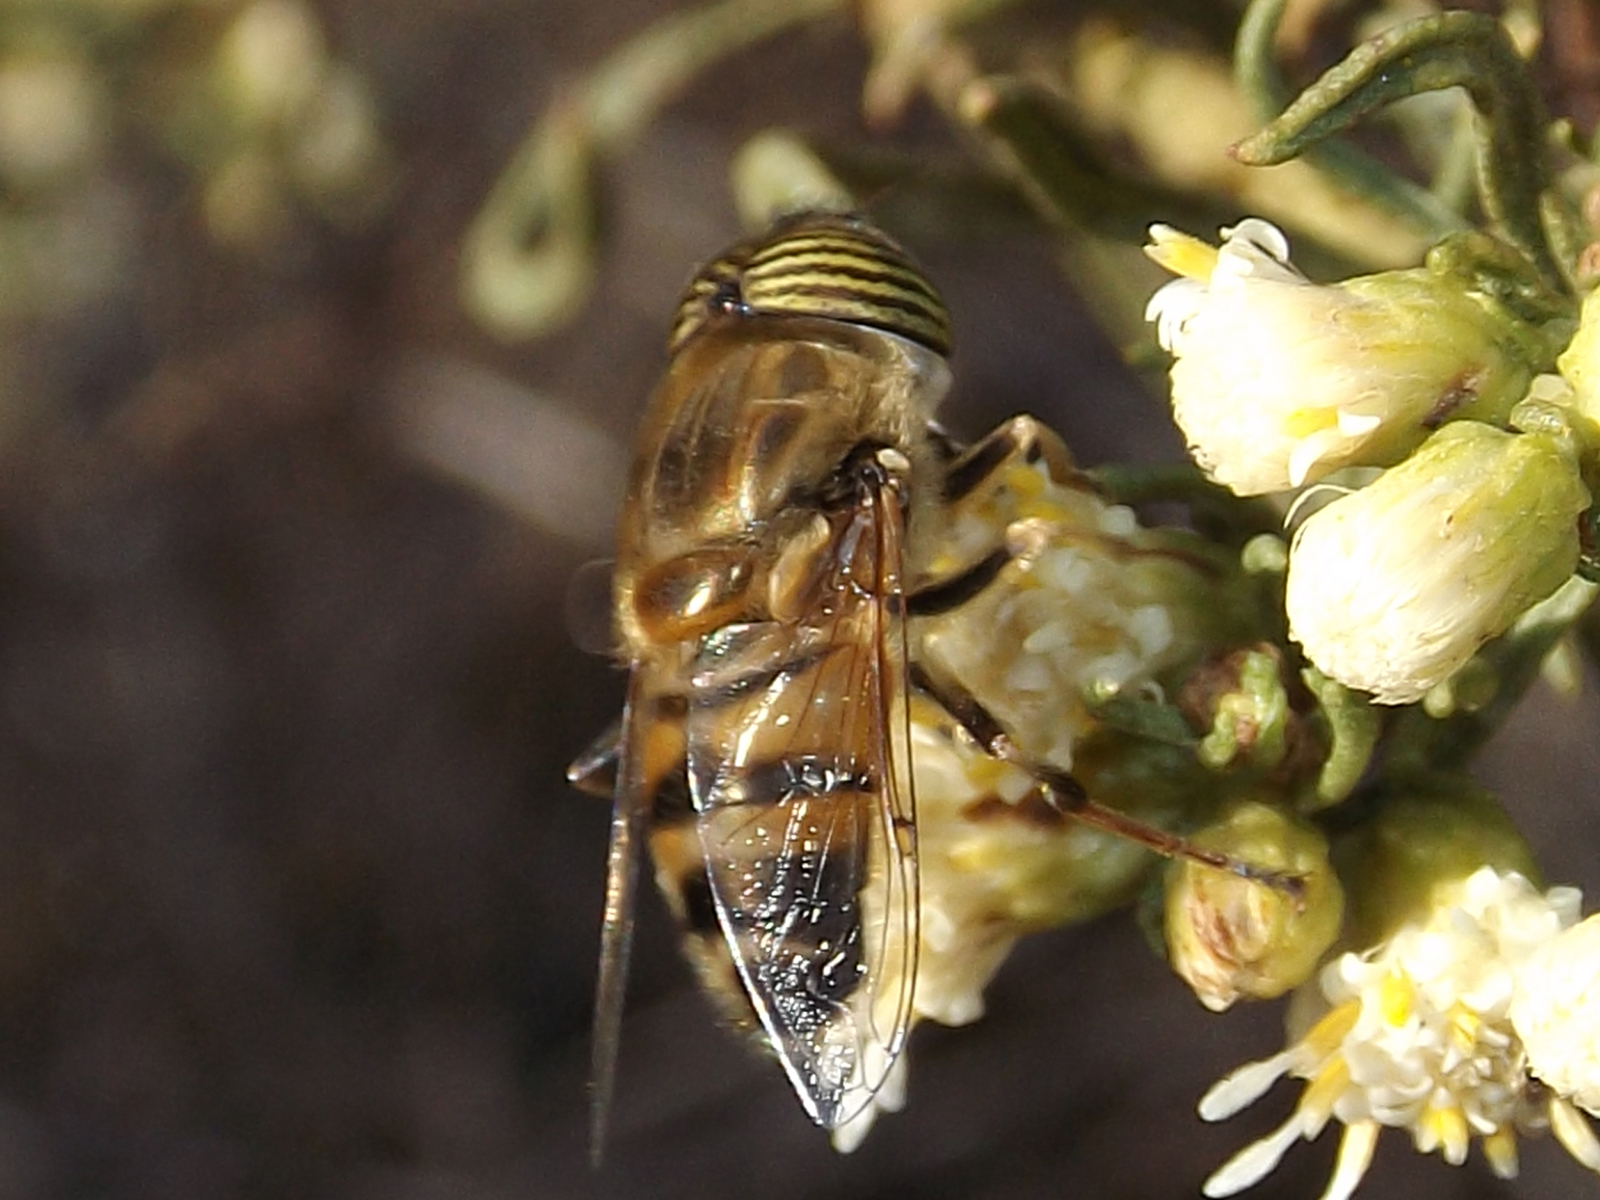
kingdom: Animalia
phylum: Arthropoda
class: Insecta
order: Diptera
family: Syrphidae
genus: Eristalinus
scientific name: Eristalinus taeniops
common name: Syrphid fly
